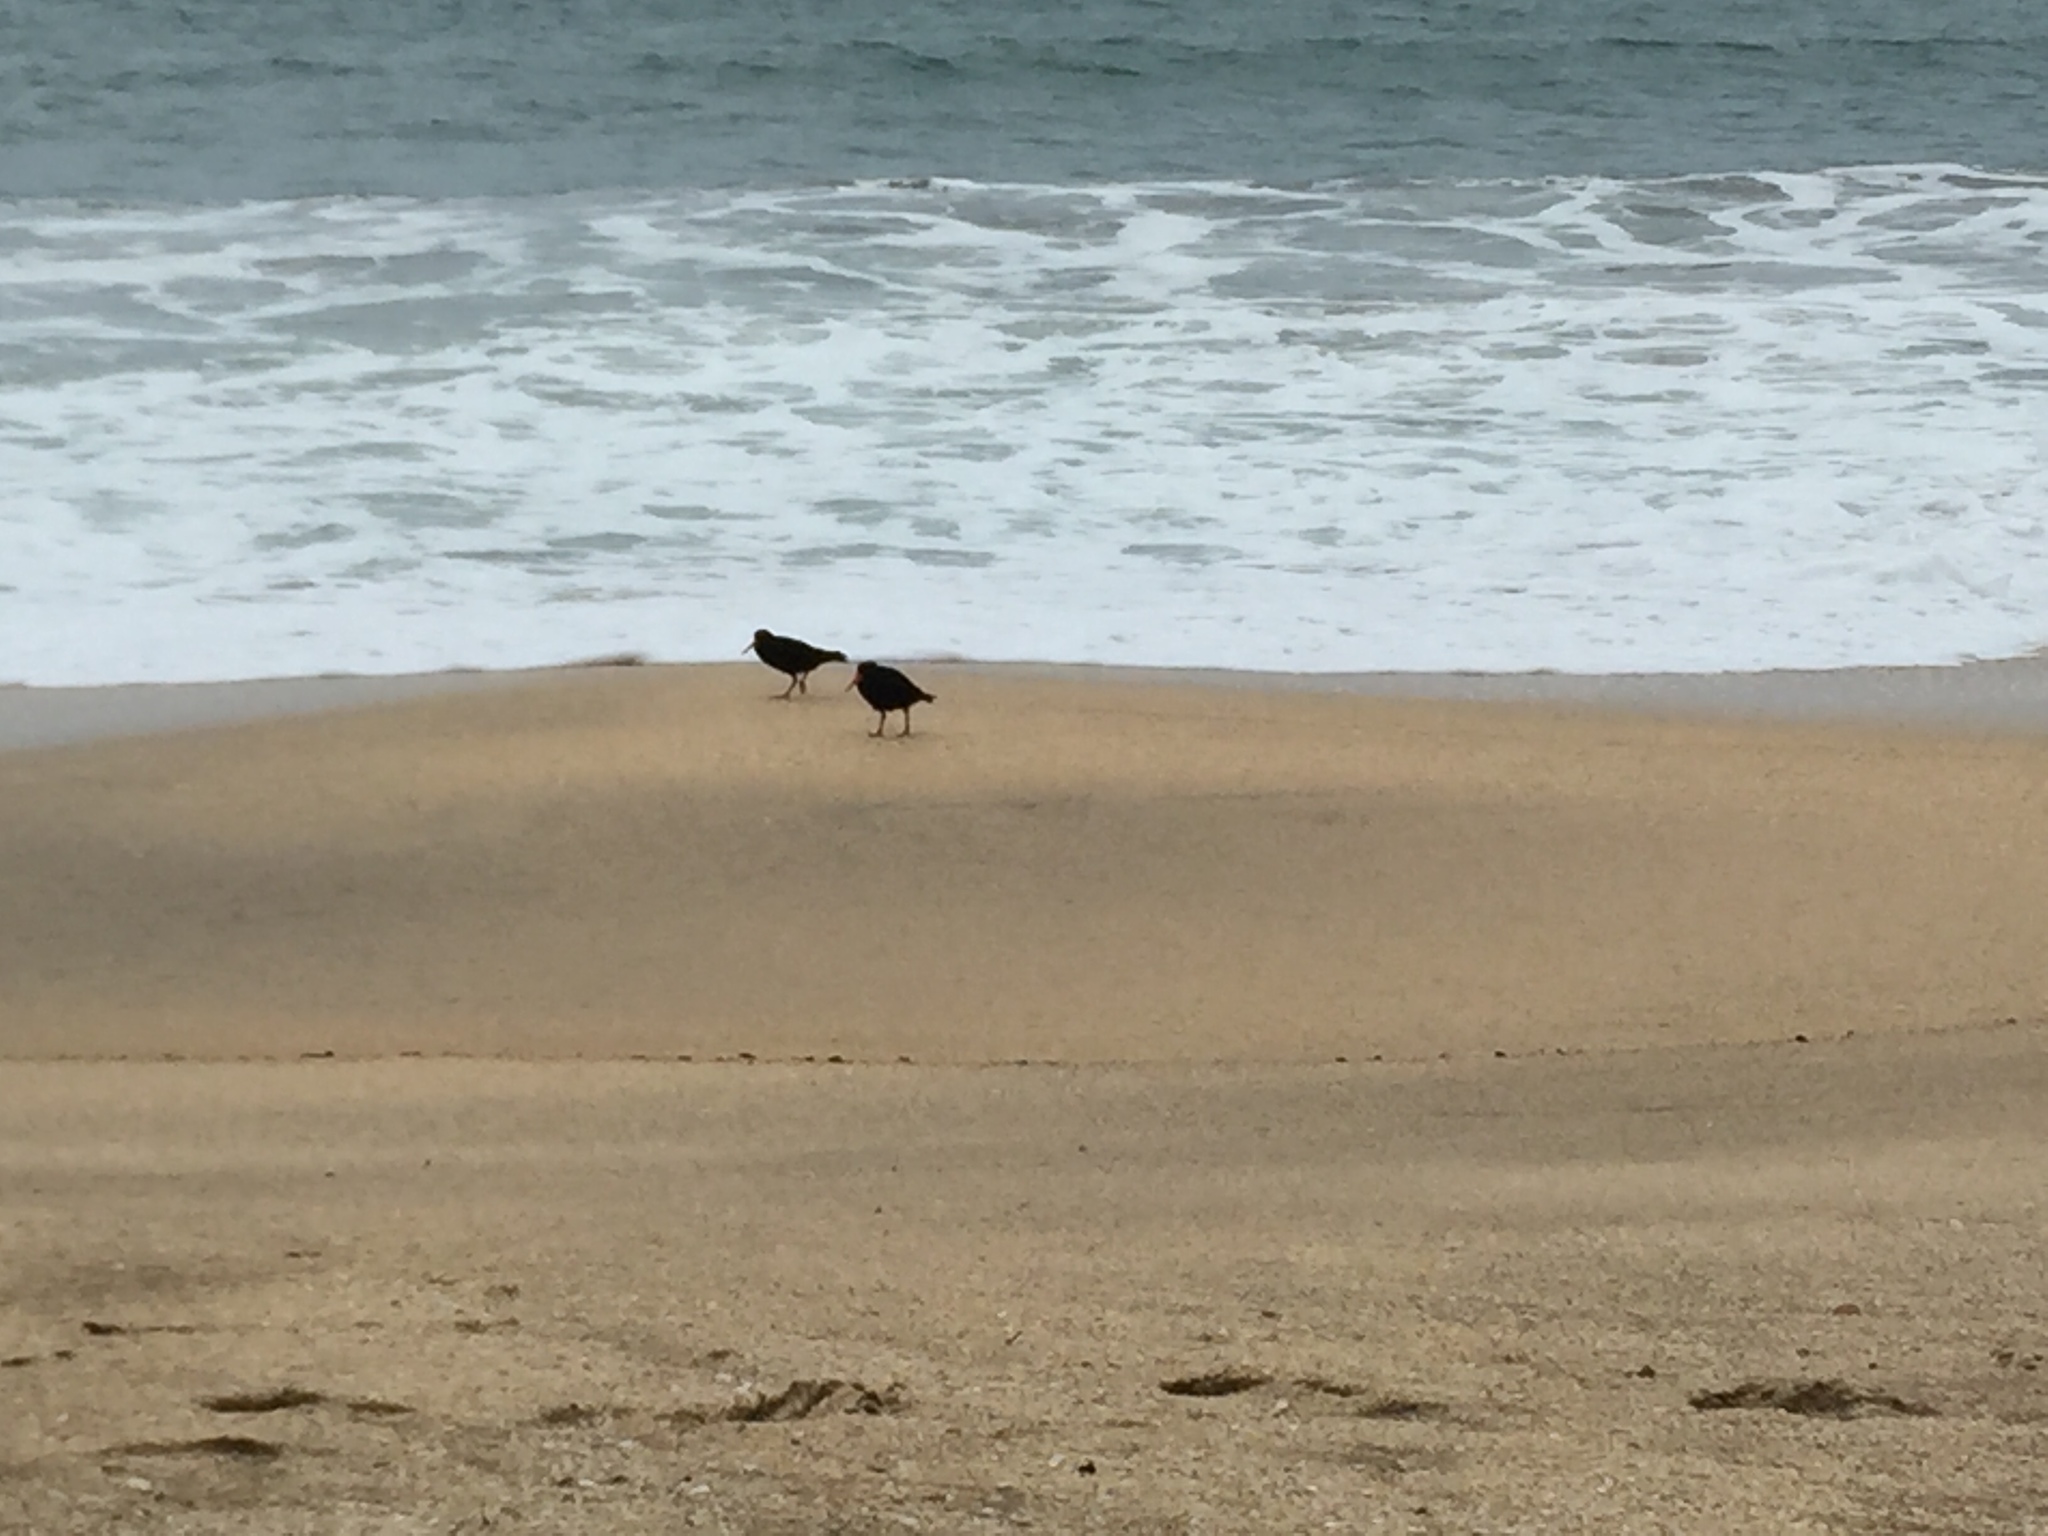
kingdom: Animalia
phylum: Chordata
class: Aves
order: Charadriiformes
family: Haematopodidae
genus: Haematopus
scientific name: Haematopus unicolor
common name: Variable oystercatcher
